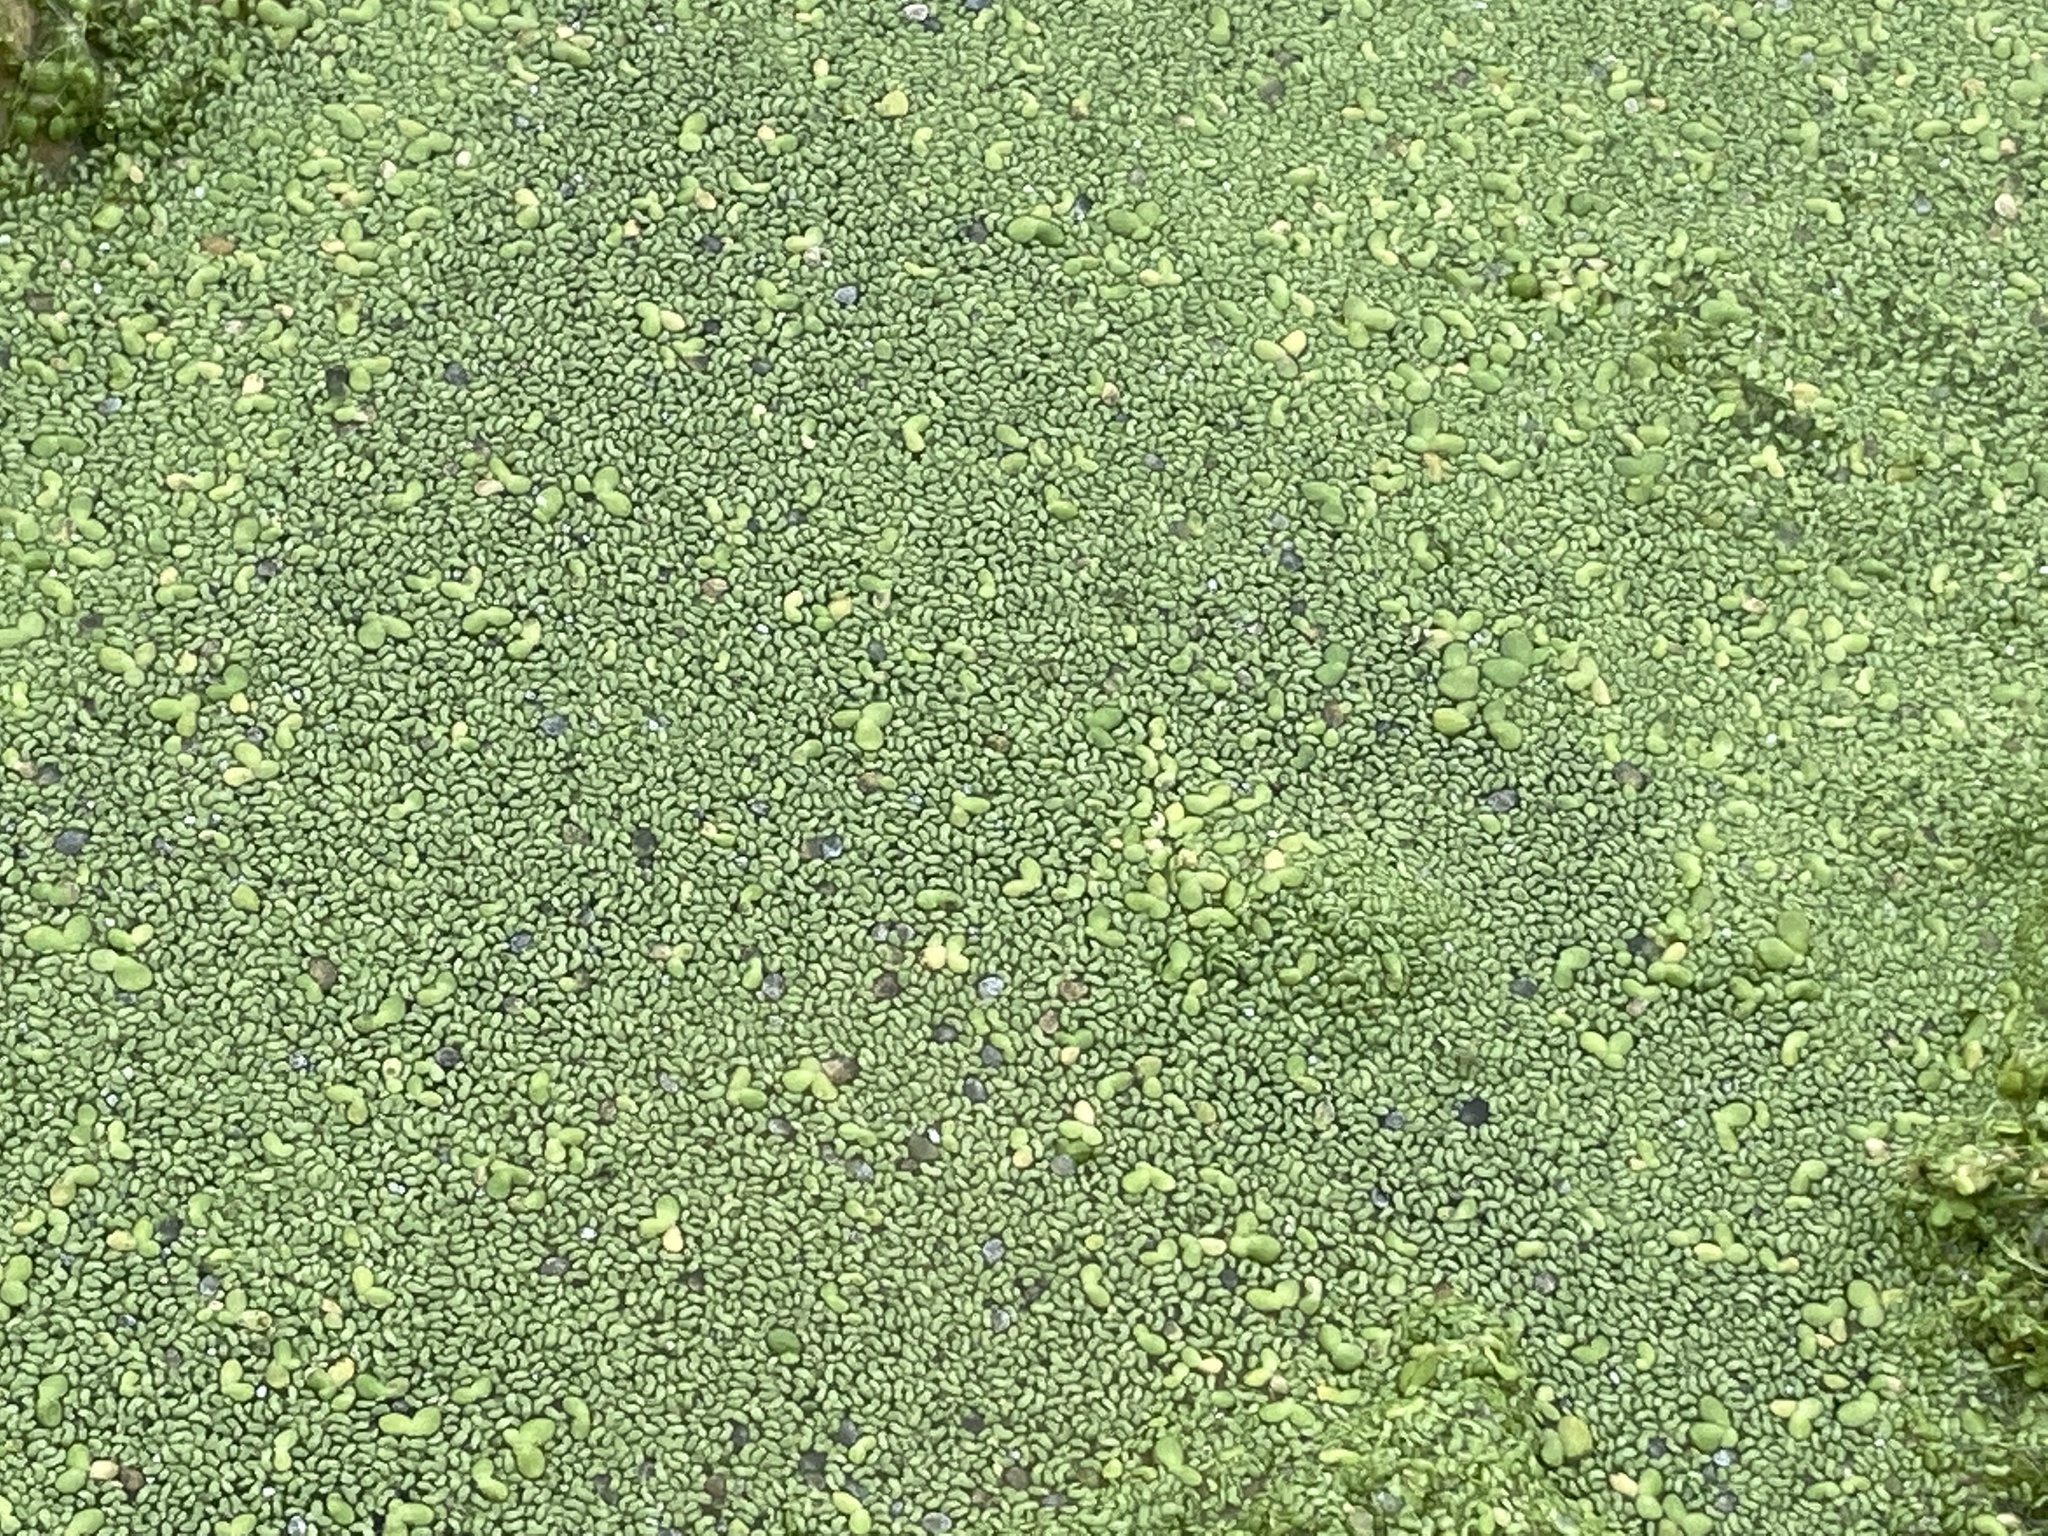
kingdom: Plantae
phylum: Tracheophyta
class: Liliopsida
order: Alismatales
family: Araceae
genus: Lemna
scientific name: Lemna gibba
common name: Fat duckweed
